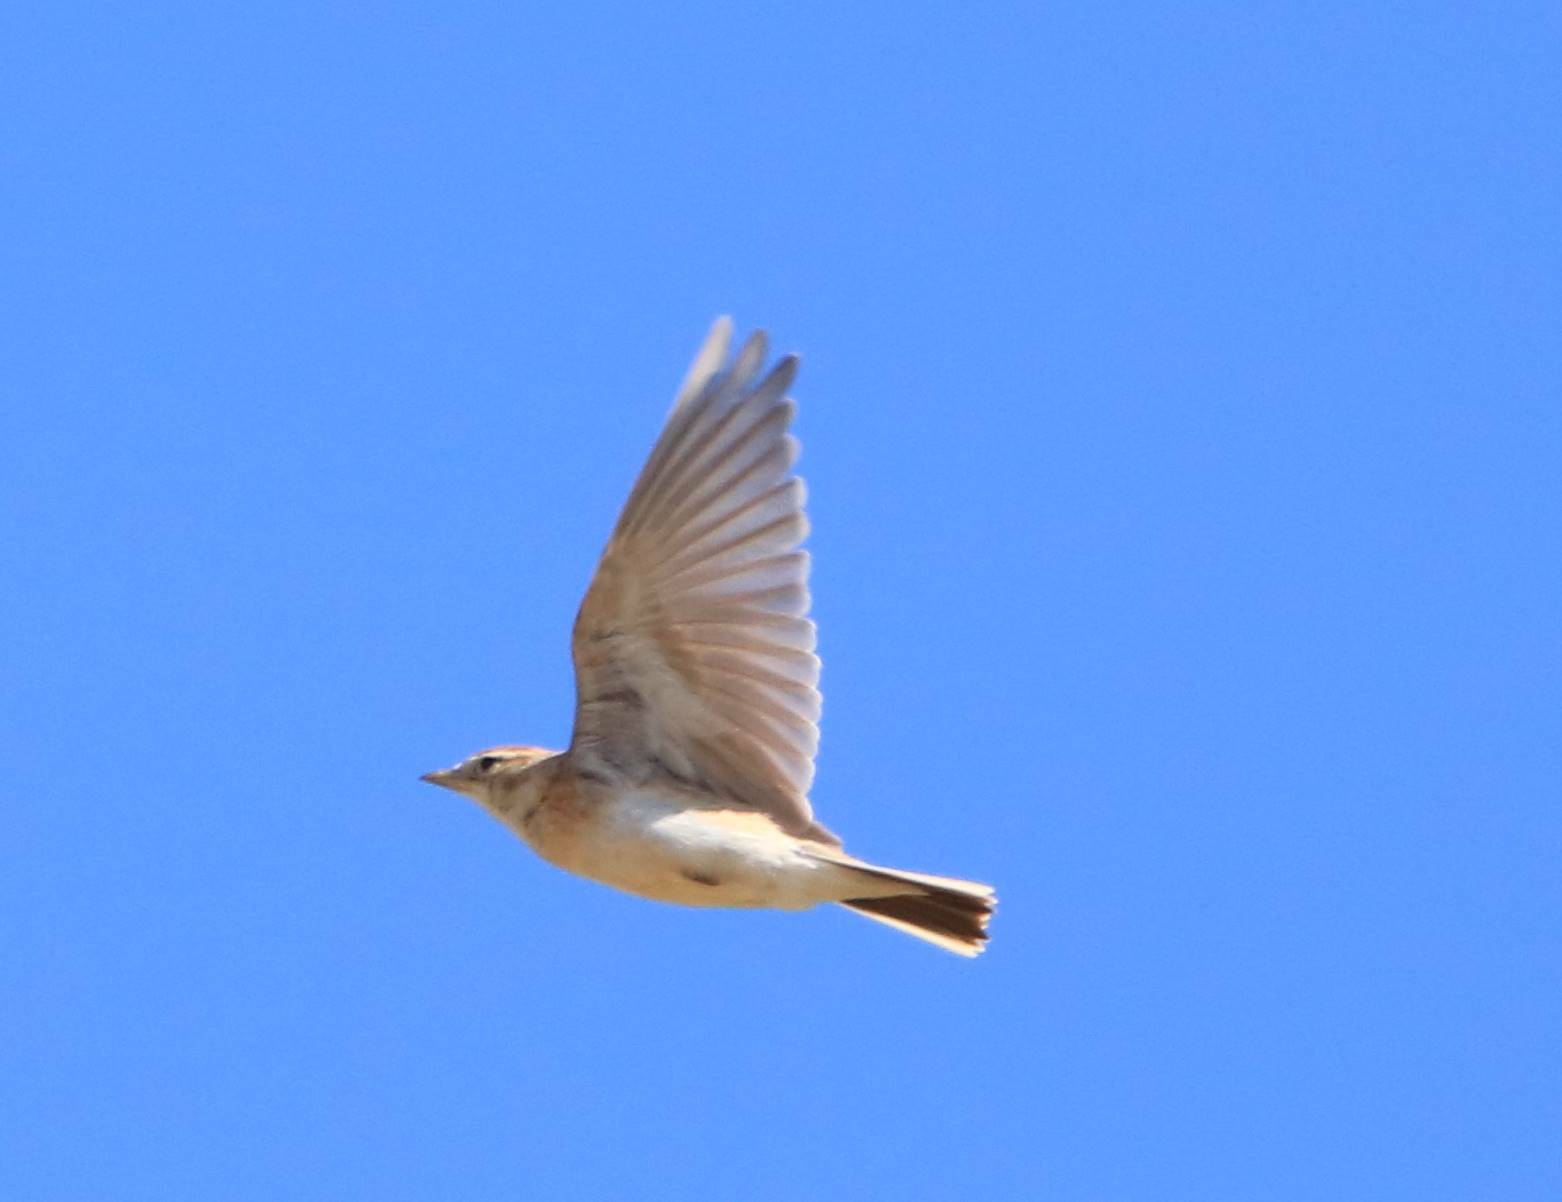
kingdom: Animalia
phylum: Chordata
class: Aves
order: Passeriformes
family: Alaudidae
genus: Calandrella
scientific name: Calandrella brachydactyla
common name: Greater short-toed lark
